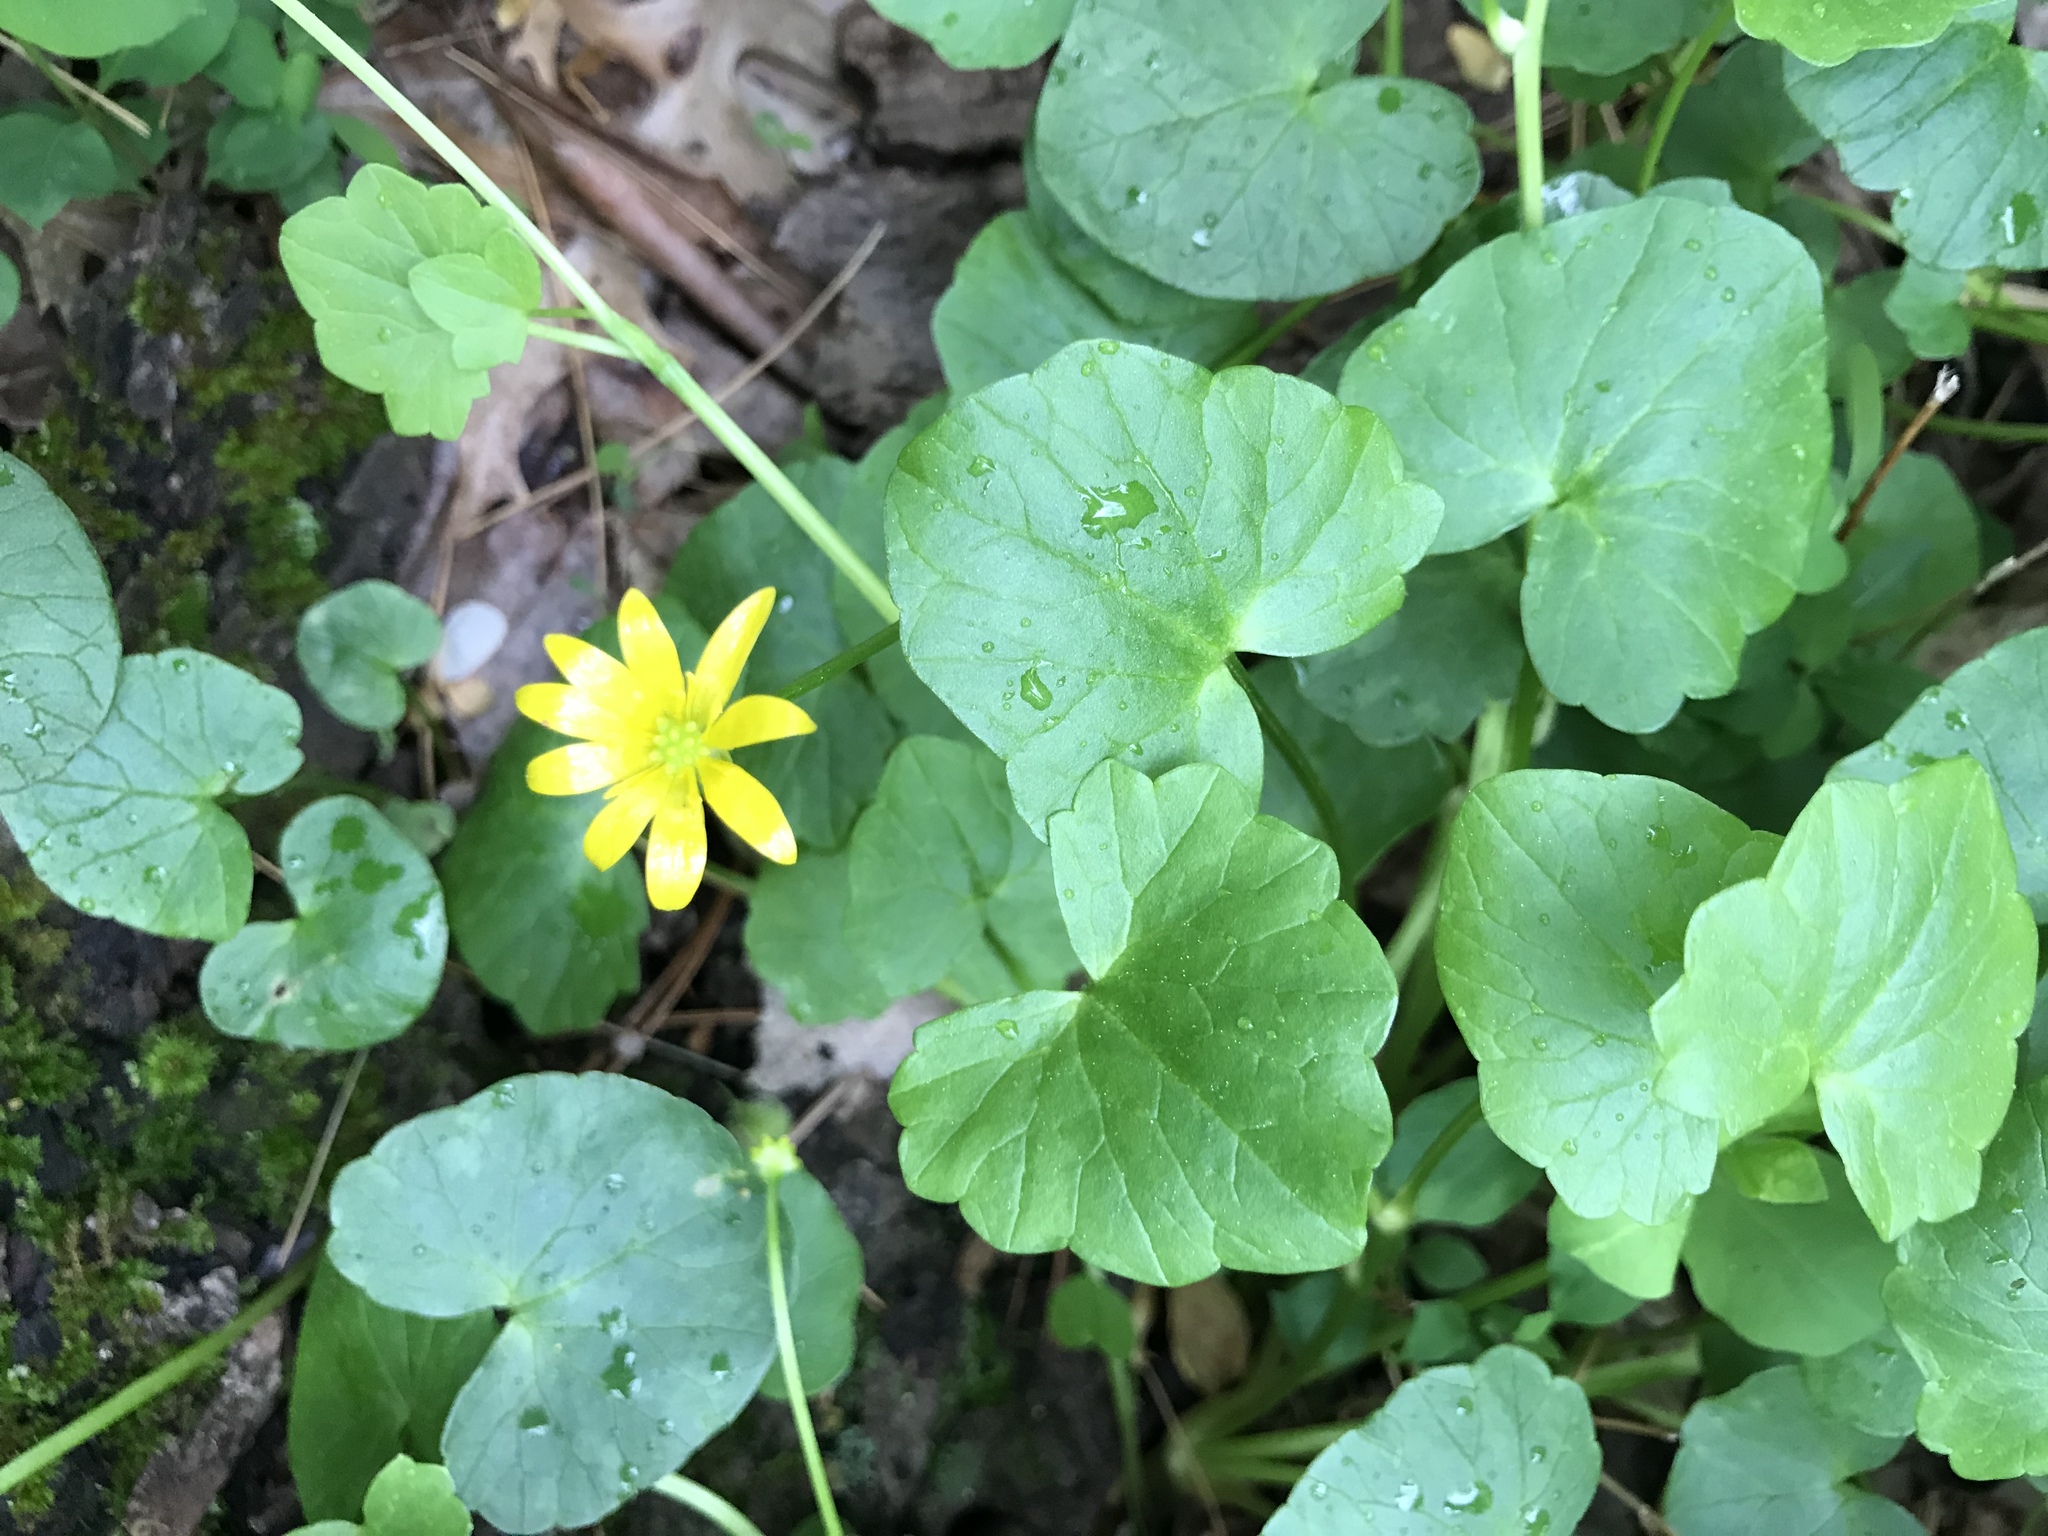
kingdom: Plantae
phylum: Tracheophyta
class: Magnoliopsida
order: Ranunculales
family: Ranunculaceae
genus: Ficaria
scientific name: Ficaria verna
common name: Lesser celandine
